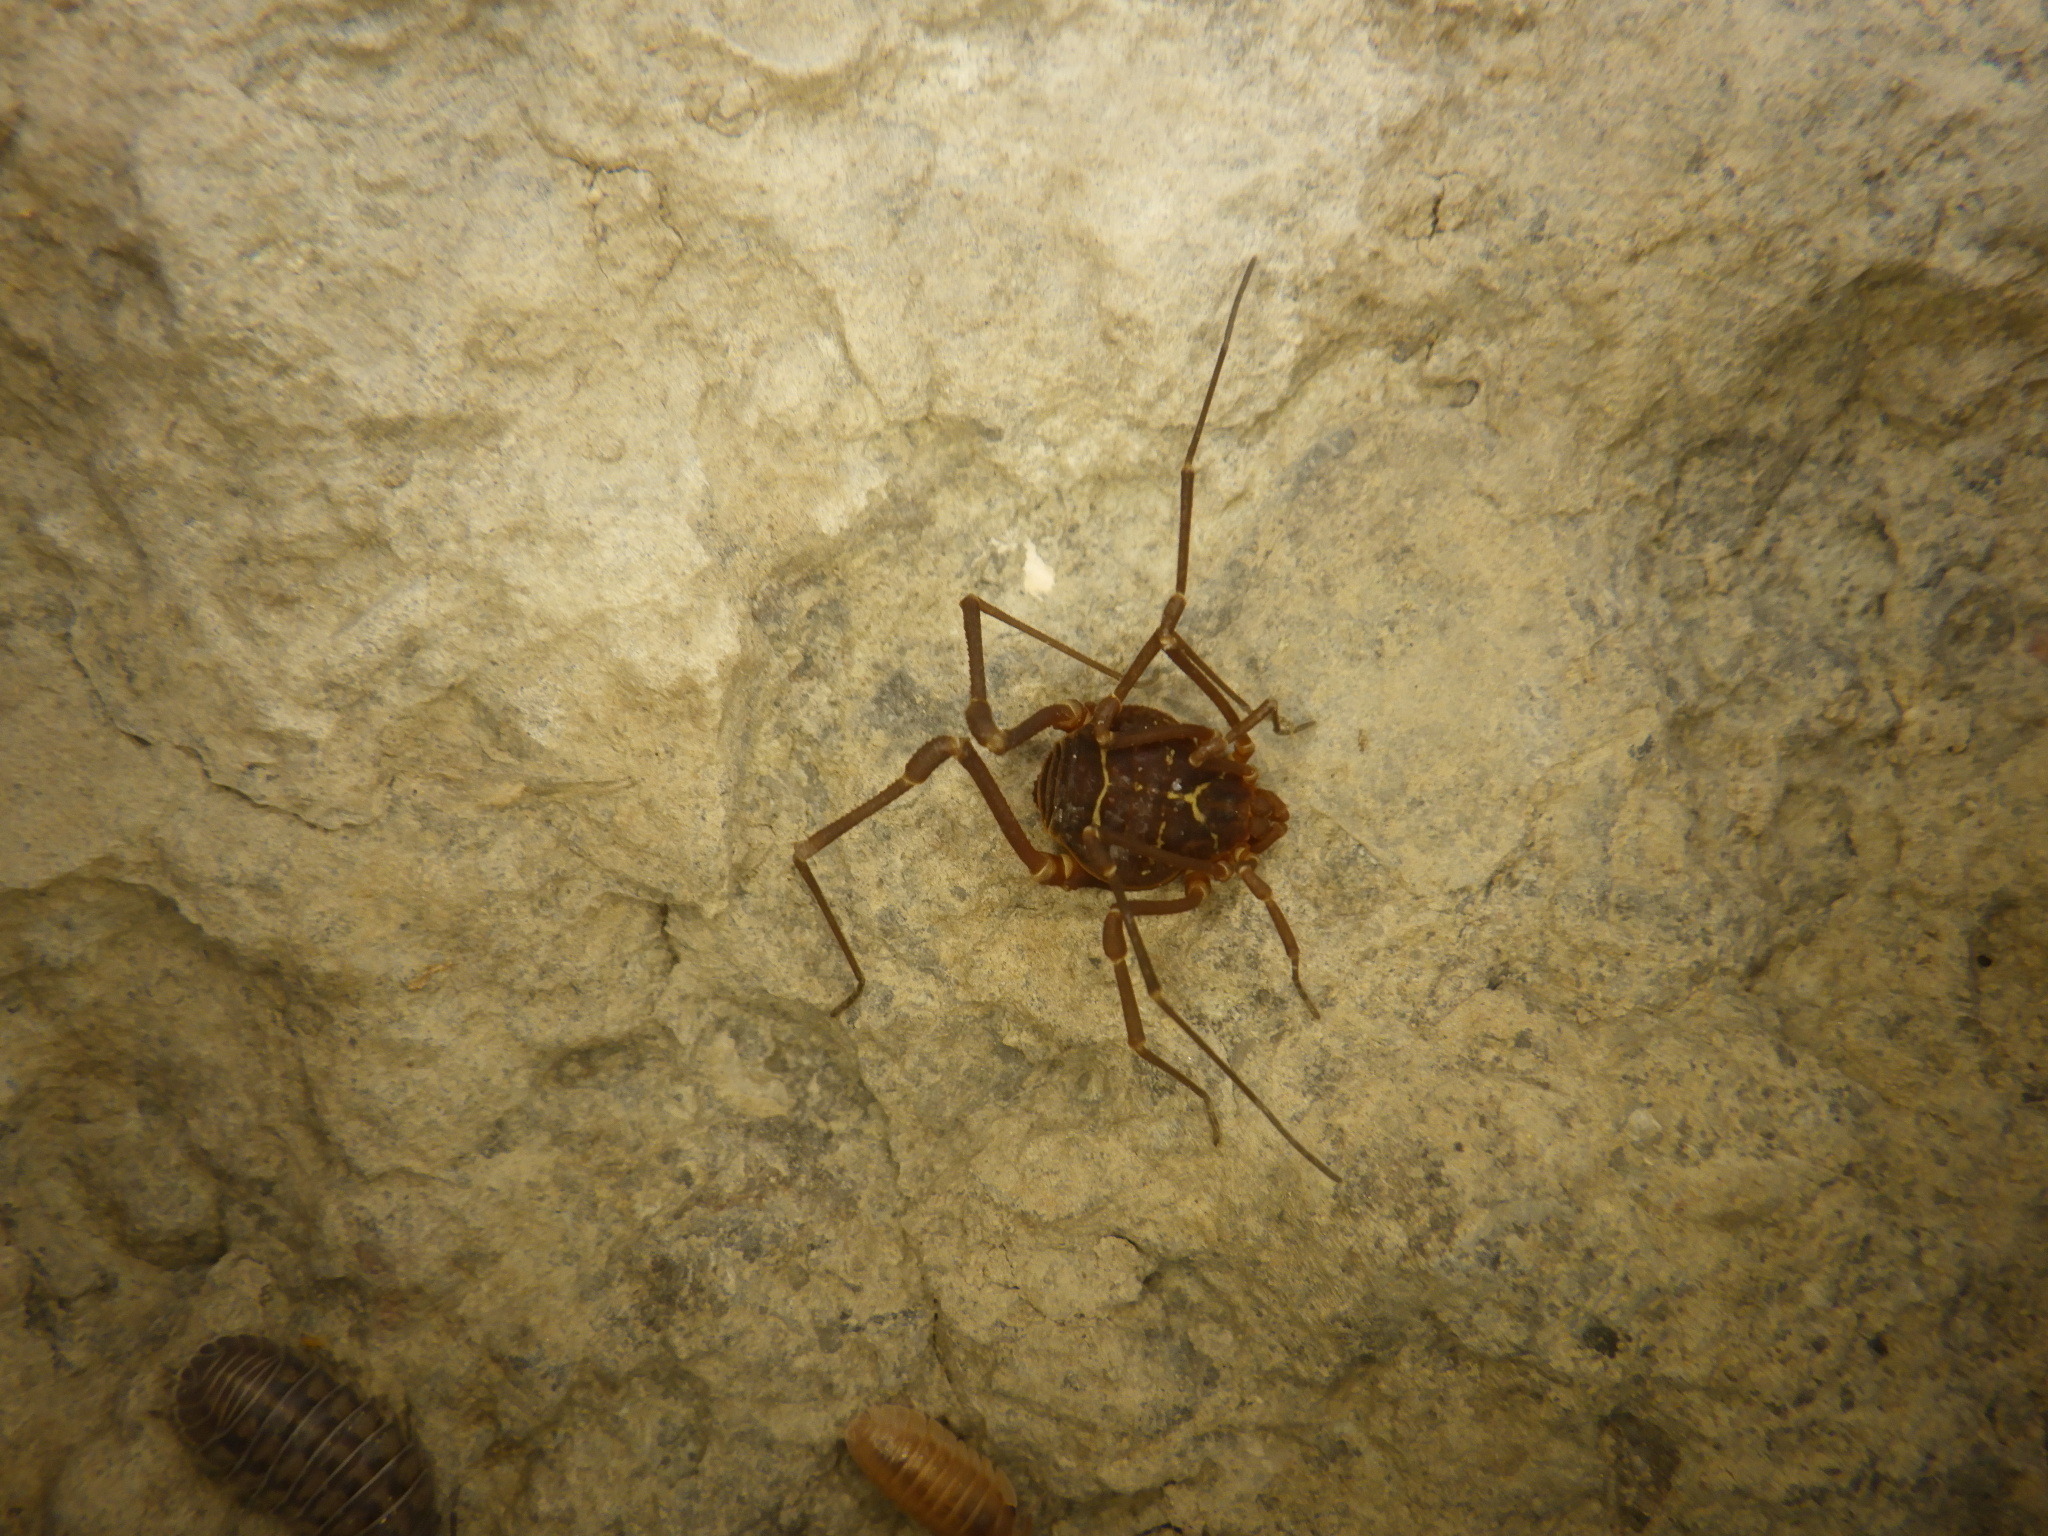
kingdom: Animalia
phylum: Arthropoda
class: Arachnida
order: Opiliones
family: Cosmetidae
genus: Libitioides
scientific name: Libitioides sayi
